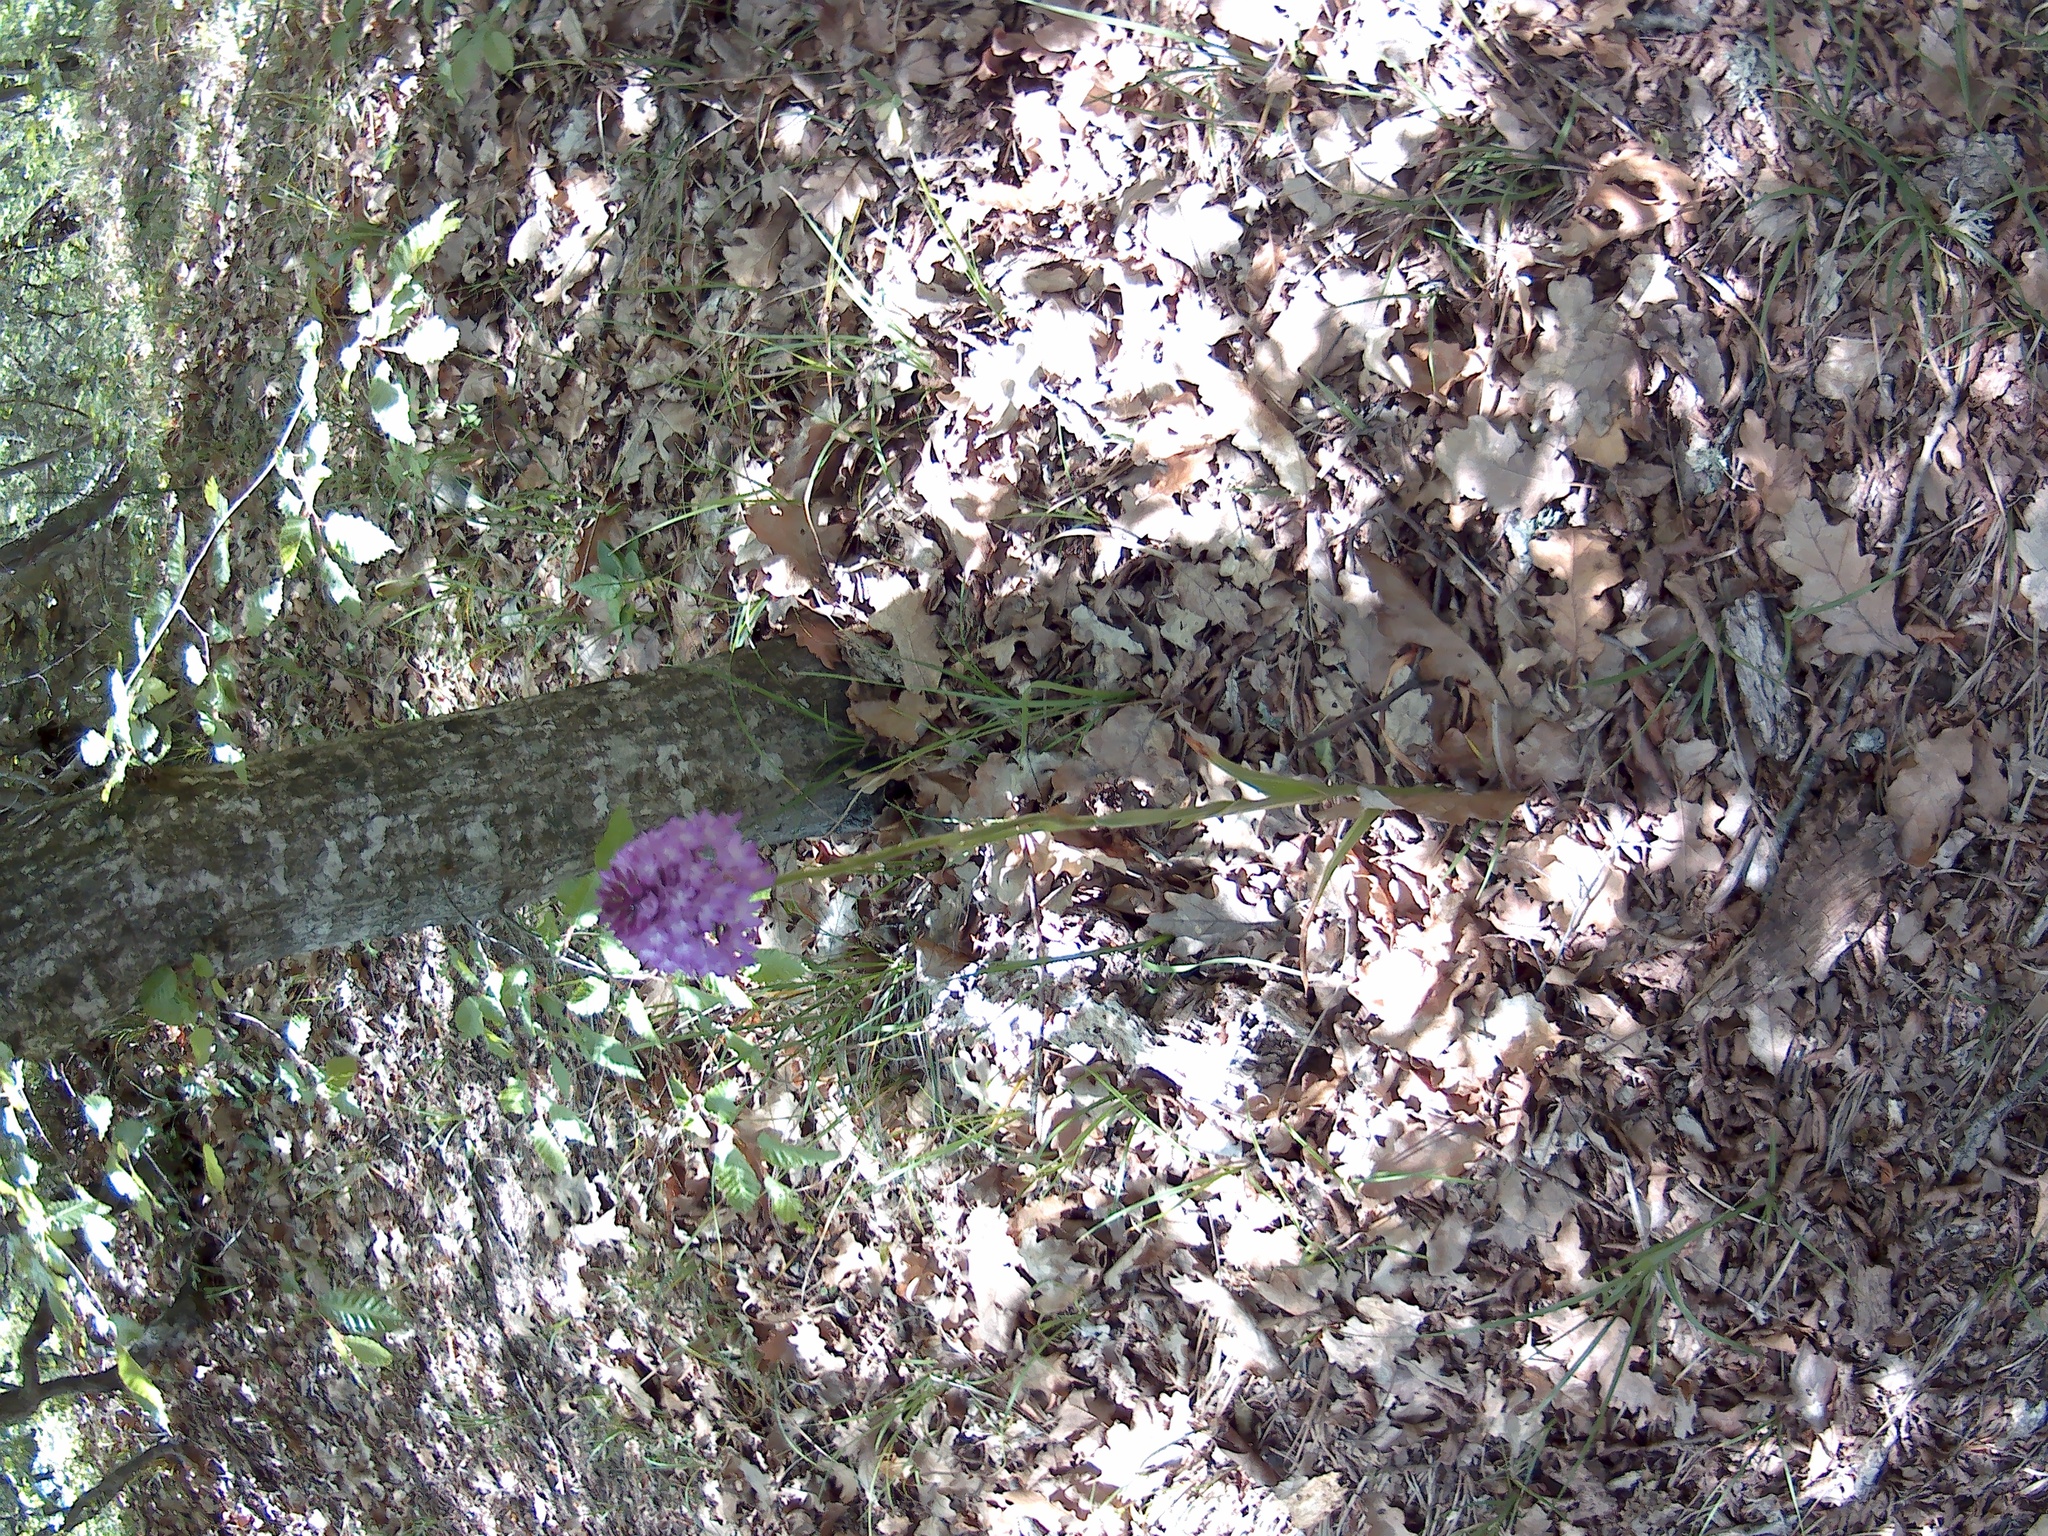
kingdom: Plantae
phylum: Tracheophyta
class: Liliopsida
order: Asparagales
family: Orchidaceae
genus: Anacamptis
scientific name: Anacamptis pyramidalis
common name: Pyramidal orchid
